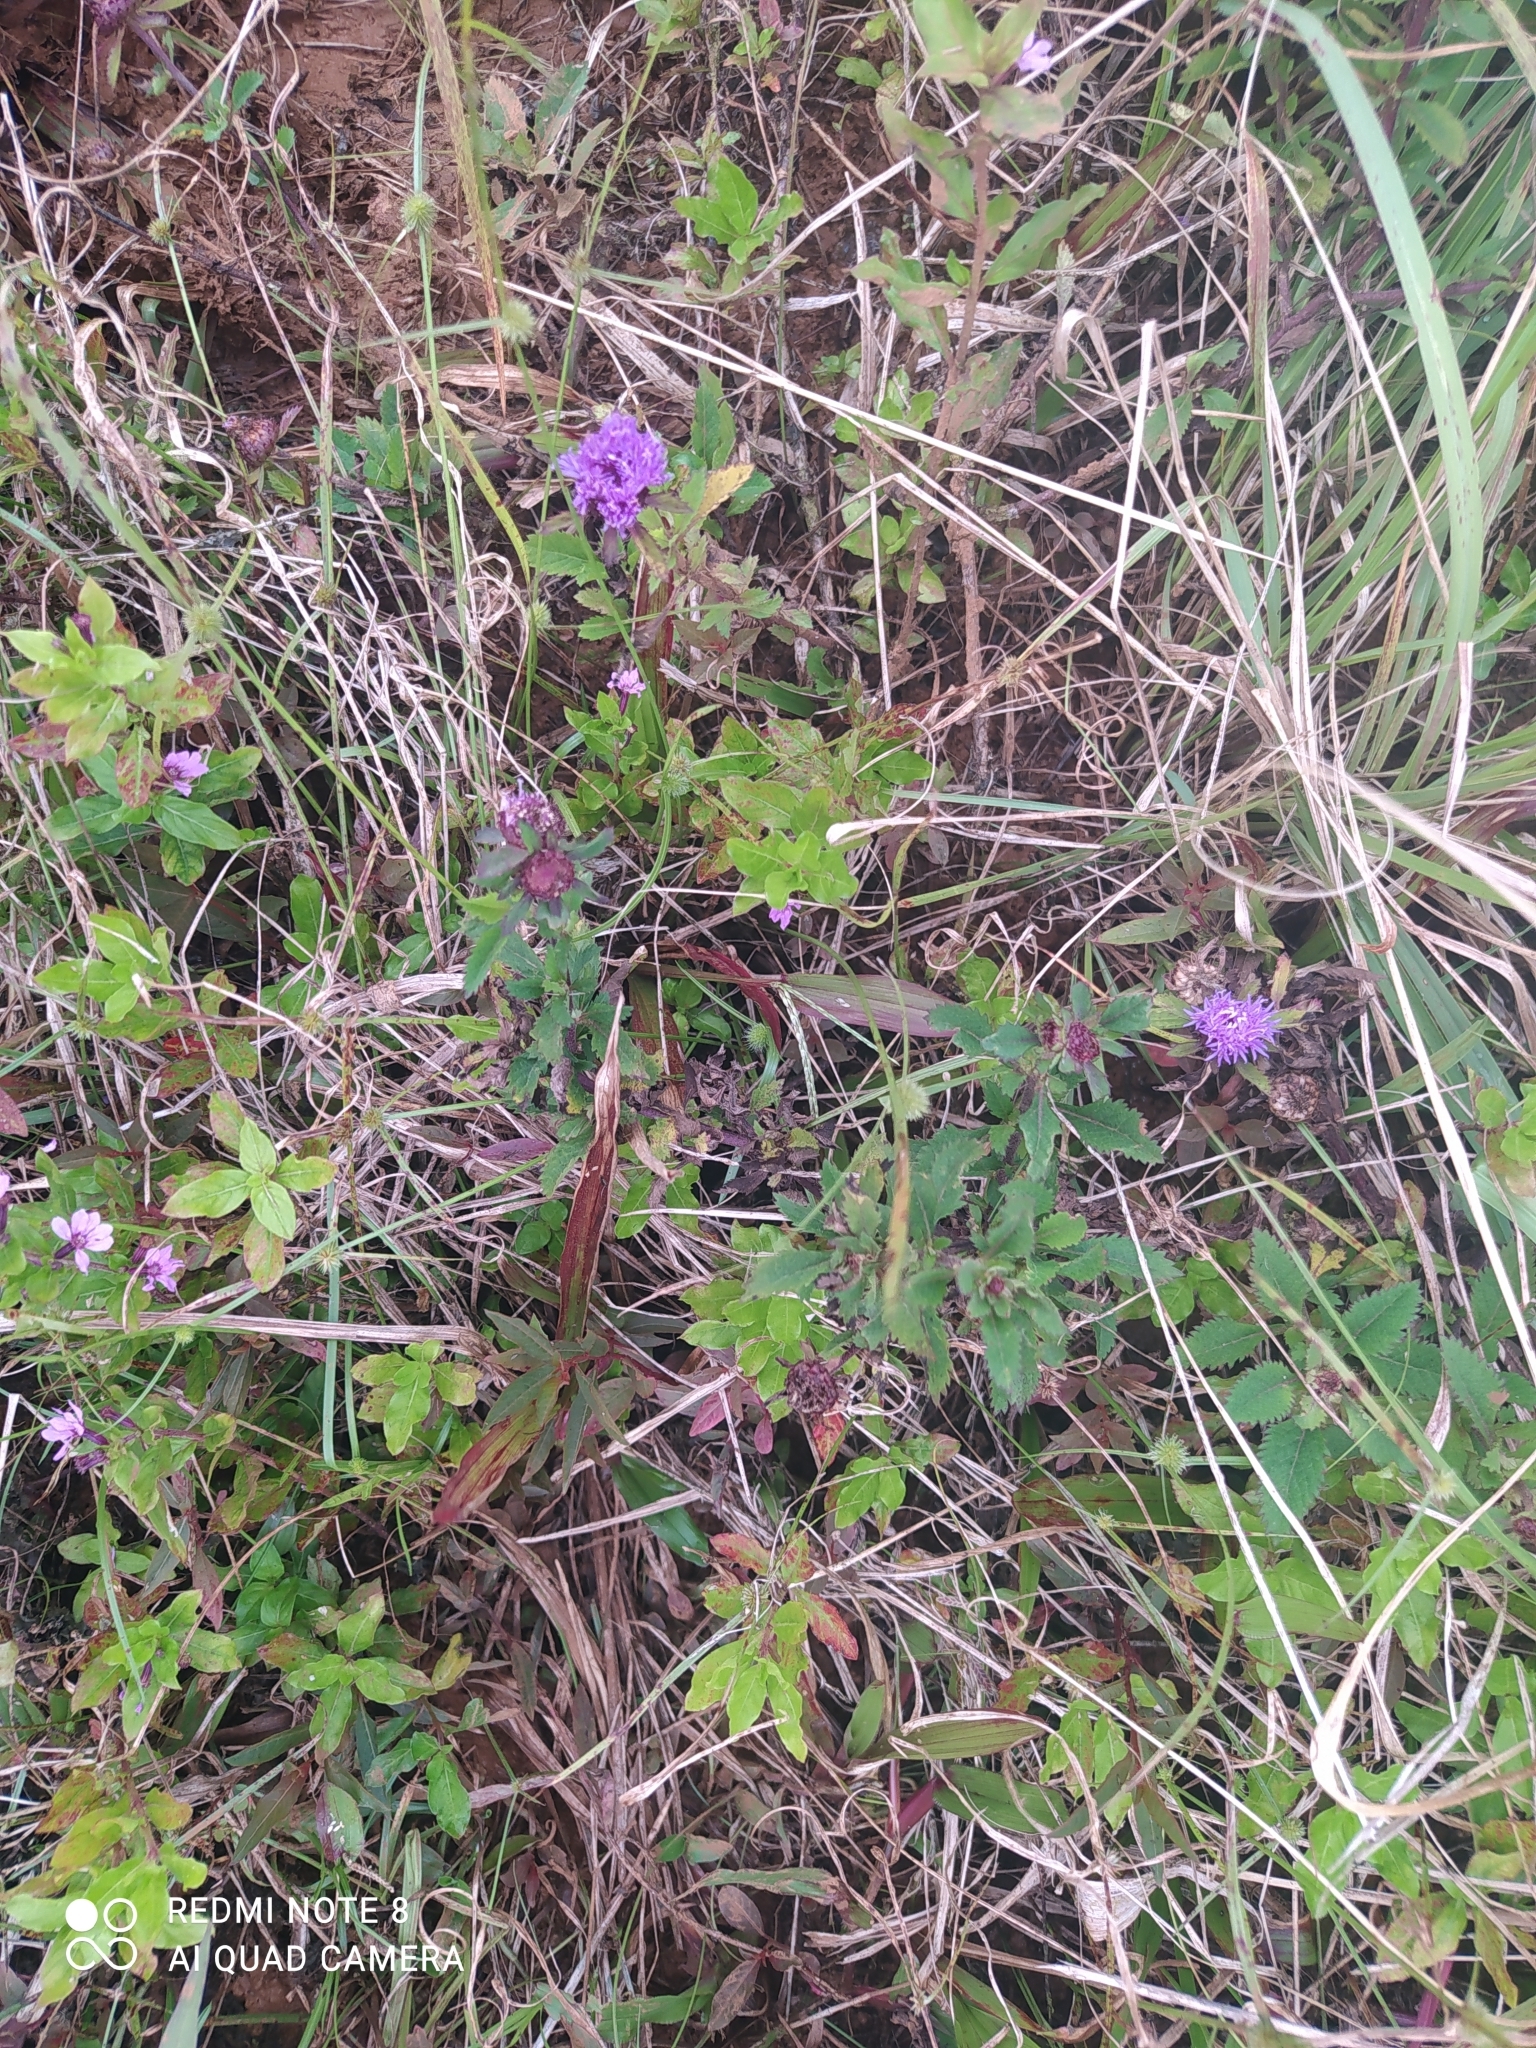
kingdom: Plantae
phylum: Tracheophyta
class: Magnoliopsida
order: Asterales
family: Asteraceae
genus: Centratherum
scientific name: Centratherum punctatum
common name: Larkdaisy
